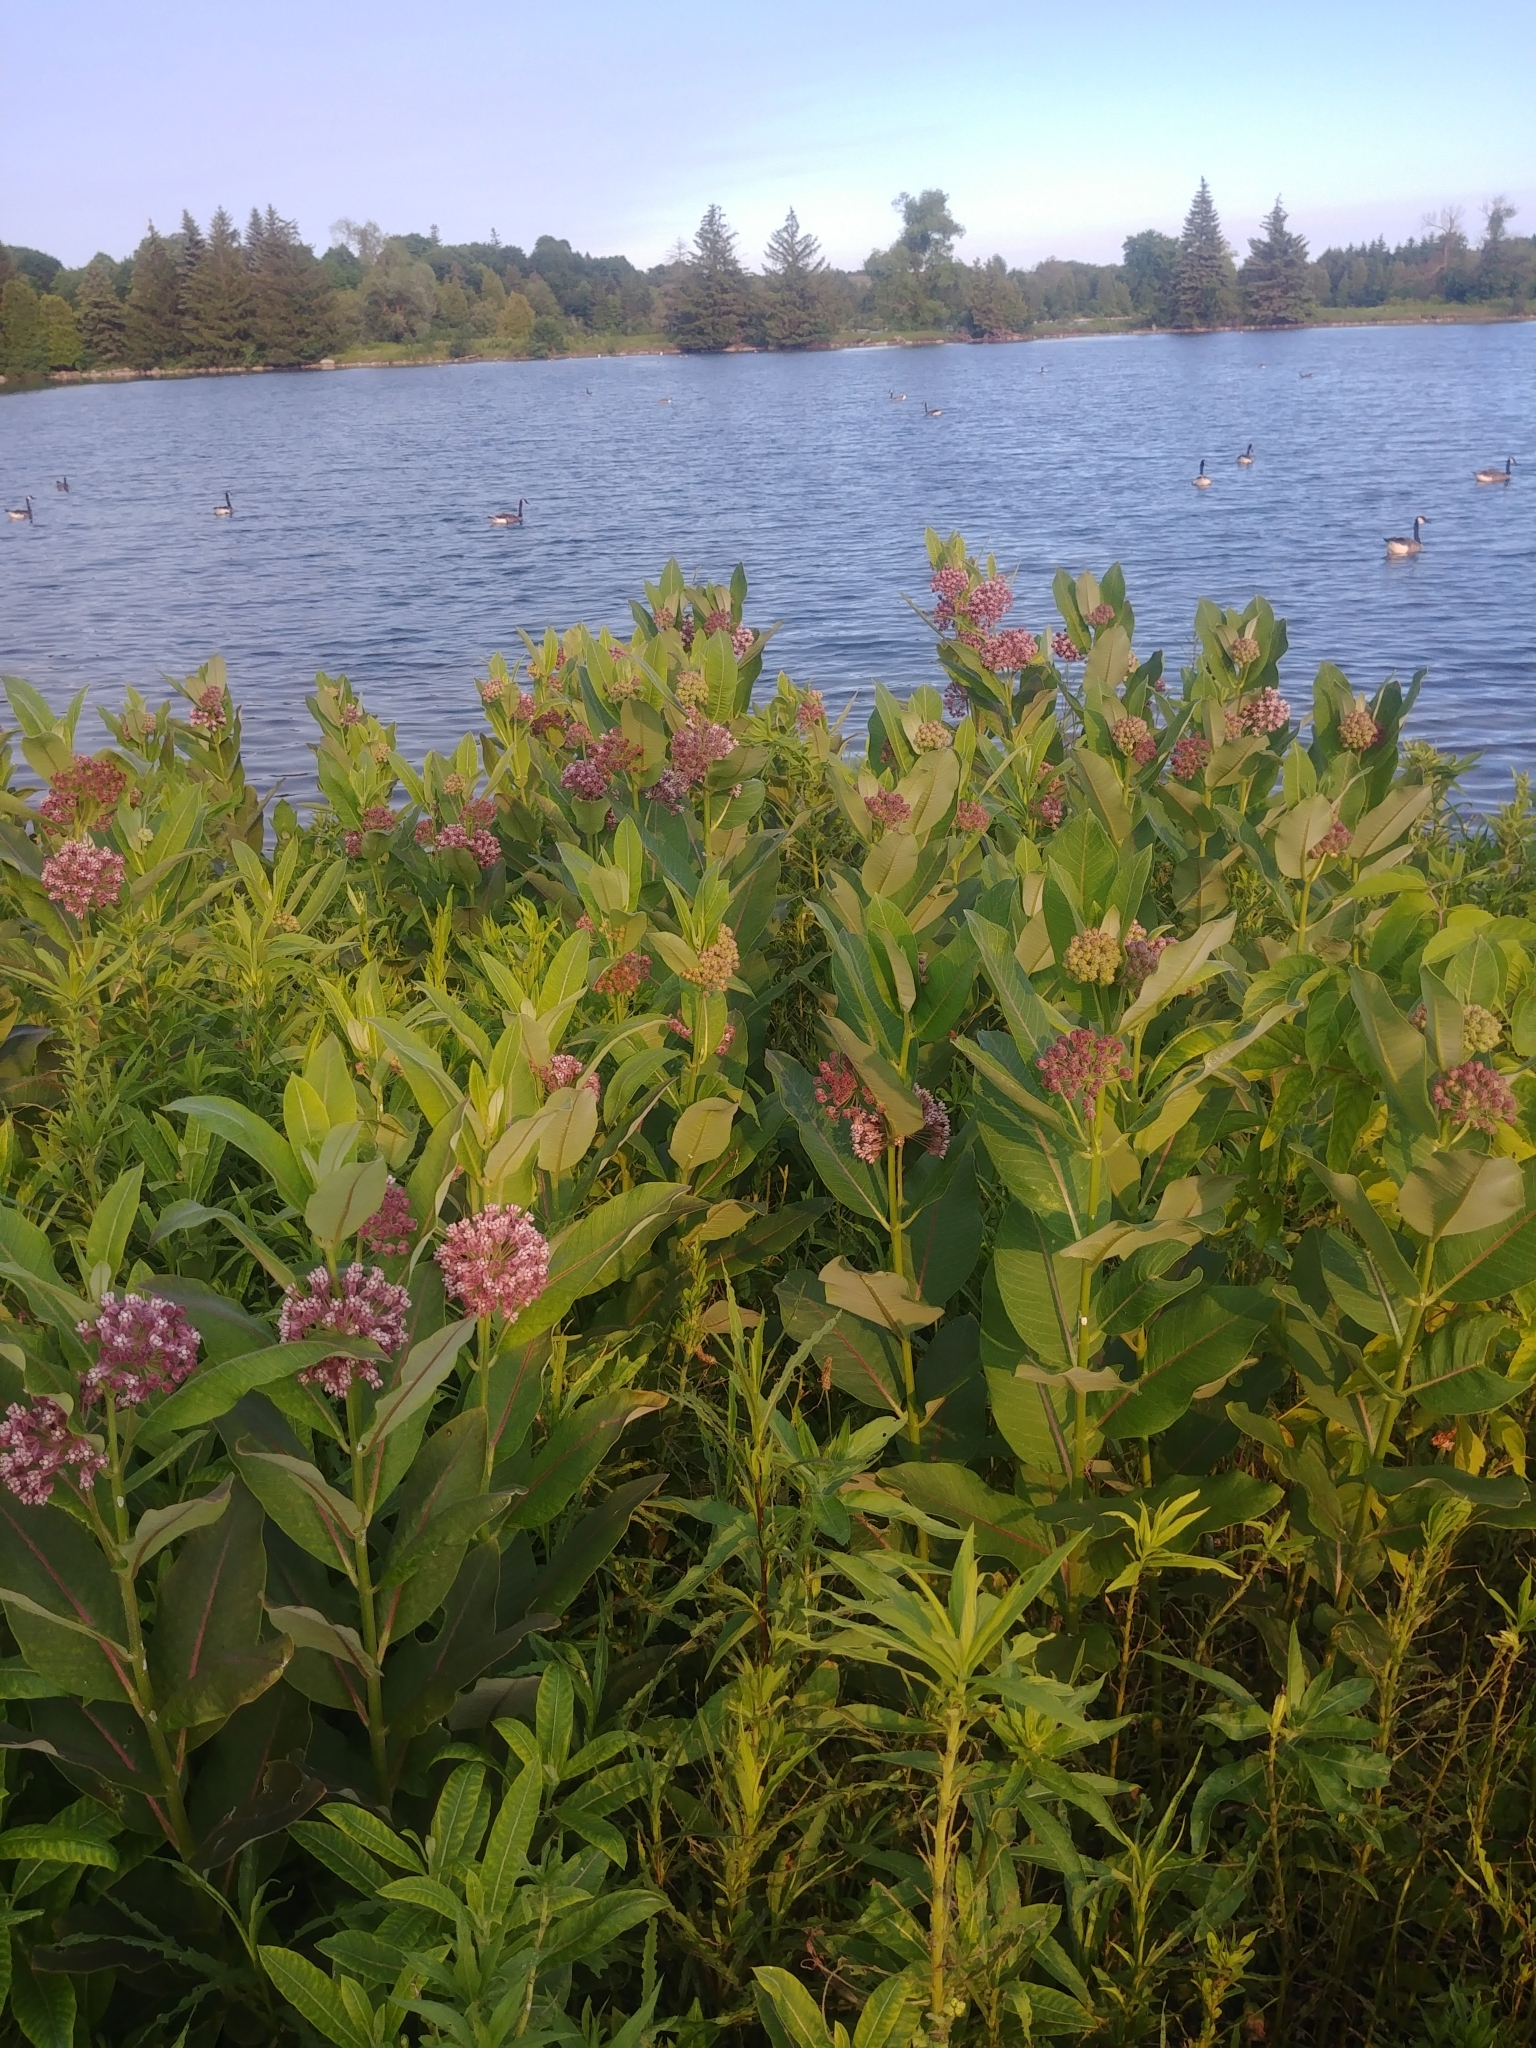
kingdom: Plantae
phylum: Tracheophyta
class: Magnoliopsida
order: Gentianales
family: Apocynaceae
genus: Asclepias
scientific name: Asclepias syriaca
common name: Common milkweed
